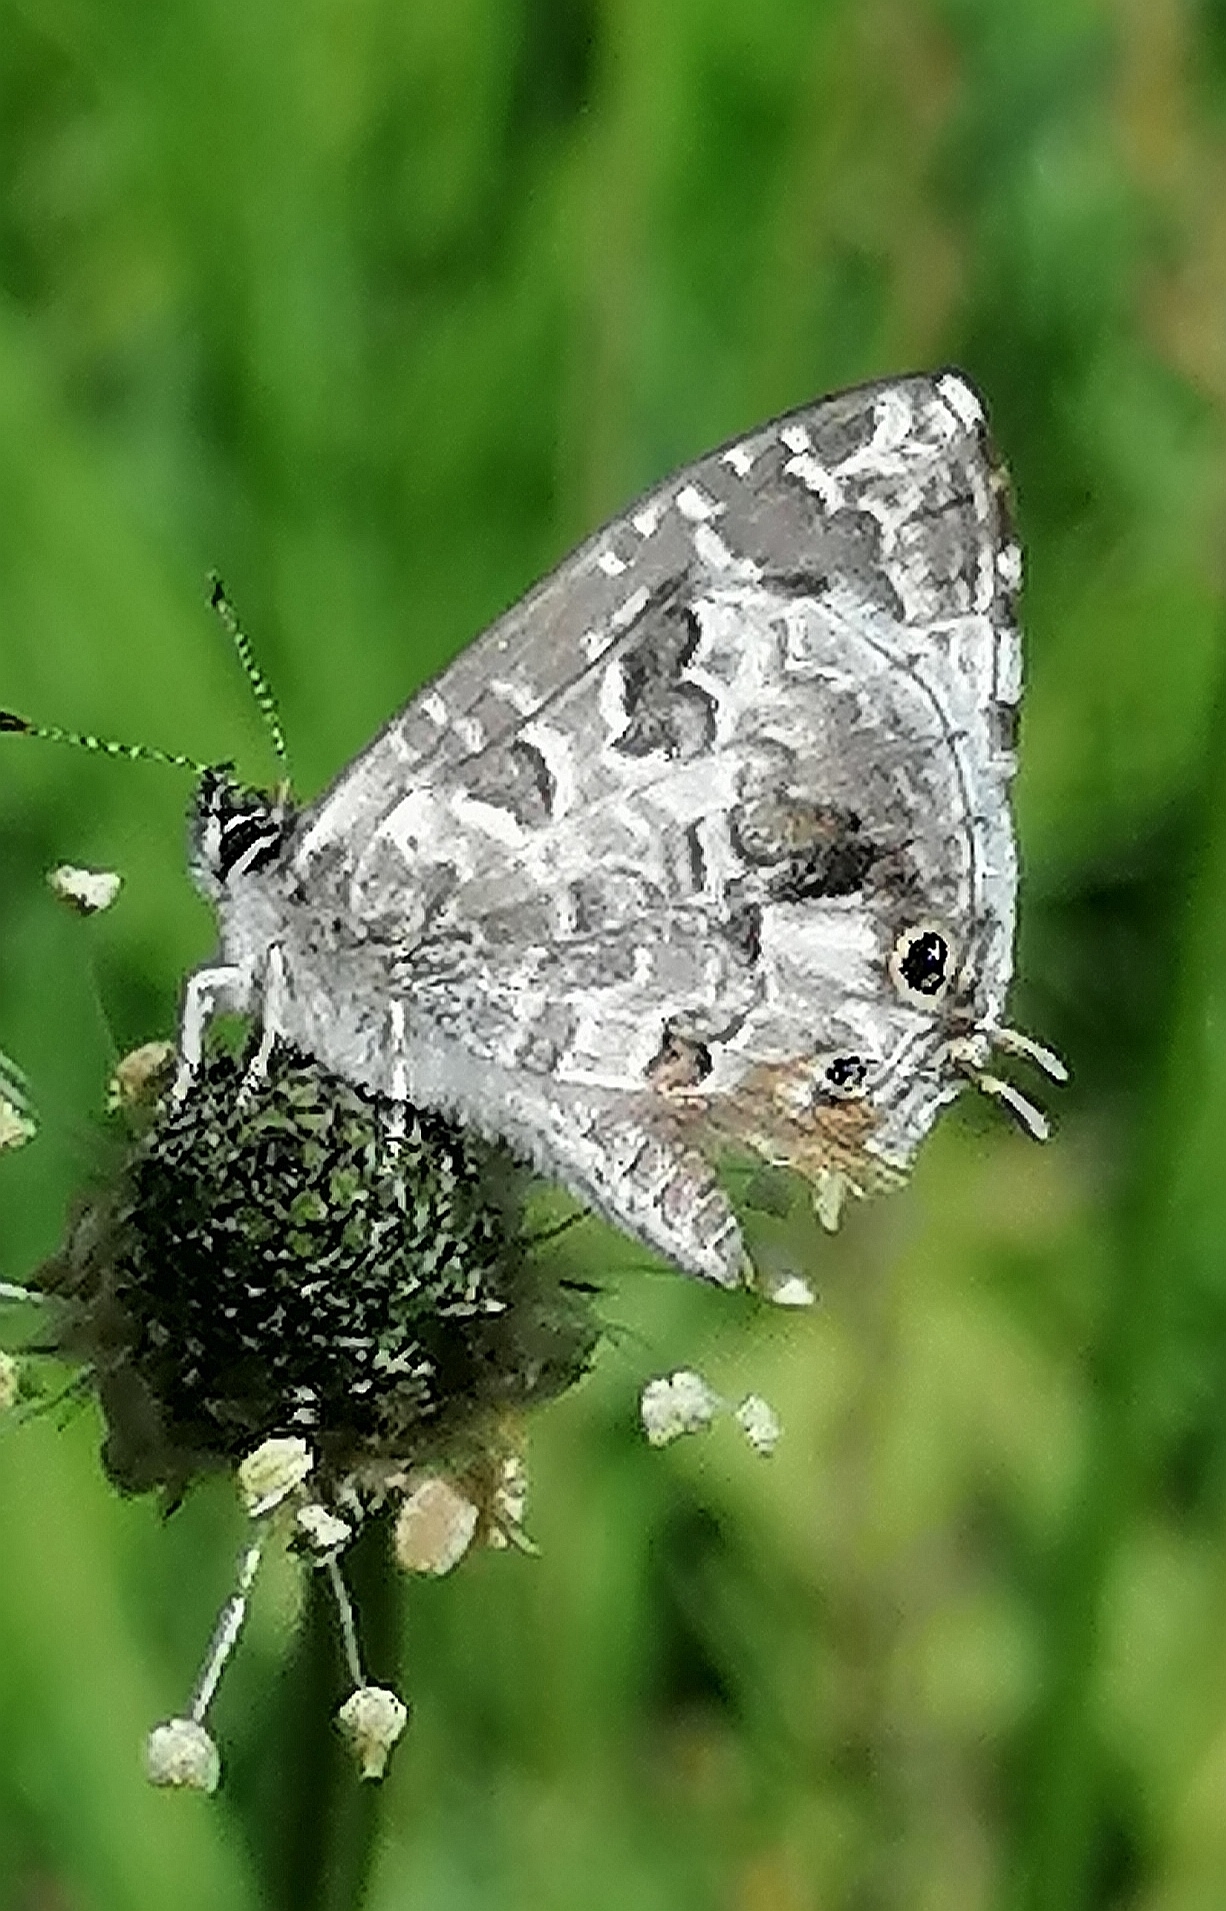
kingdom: Animalia
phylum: Arthropoda
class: Insecta
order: Lepidoptera
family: Lycaenidae
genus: Cacyreus
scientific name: Cacyreus lingeus
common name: Bush bronze
